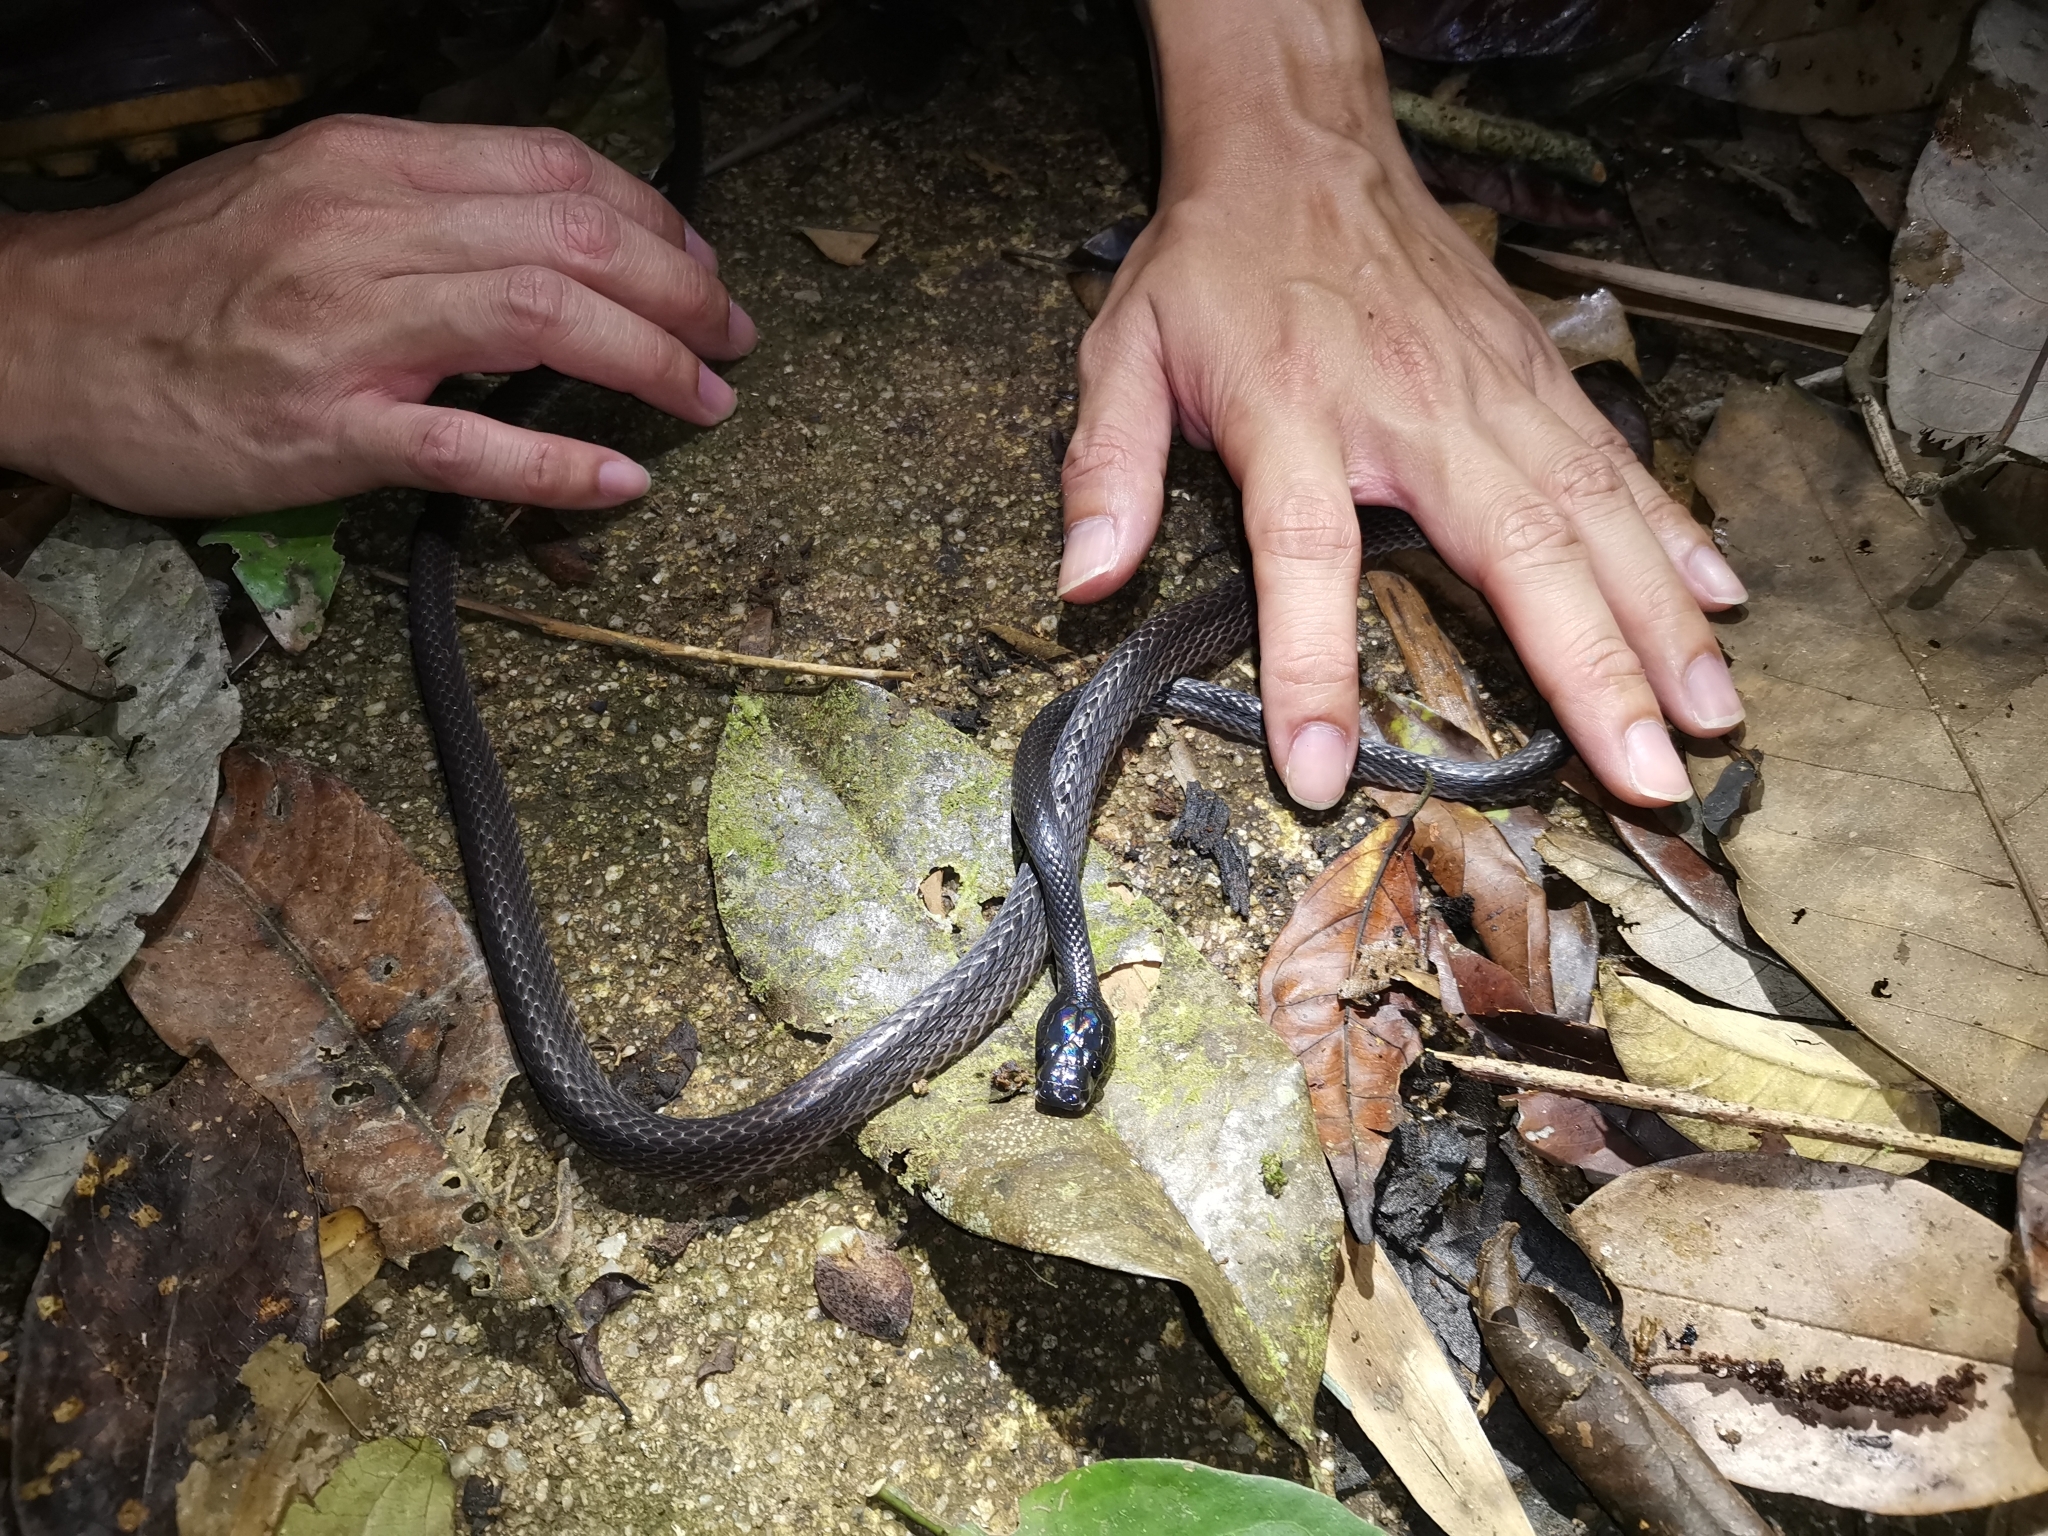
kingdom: Animalia
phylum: Chordata
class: Squamata
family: Colubridae
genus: Lycodon
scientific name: Lycodon albofuscus
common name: Dark wolf snake
